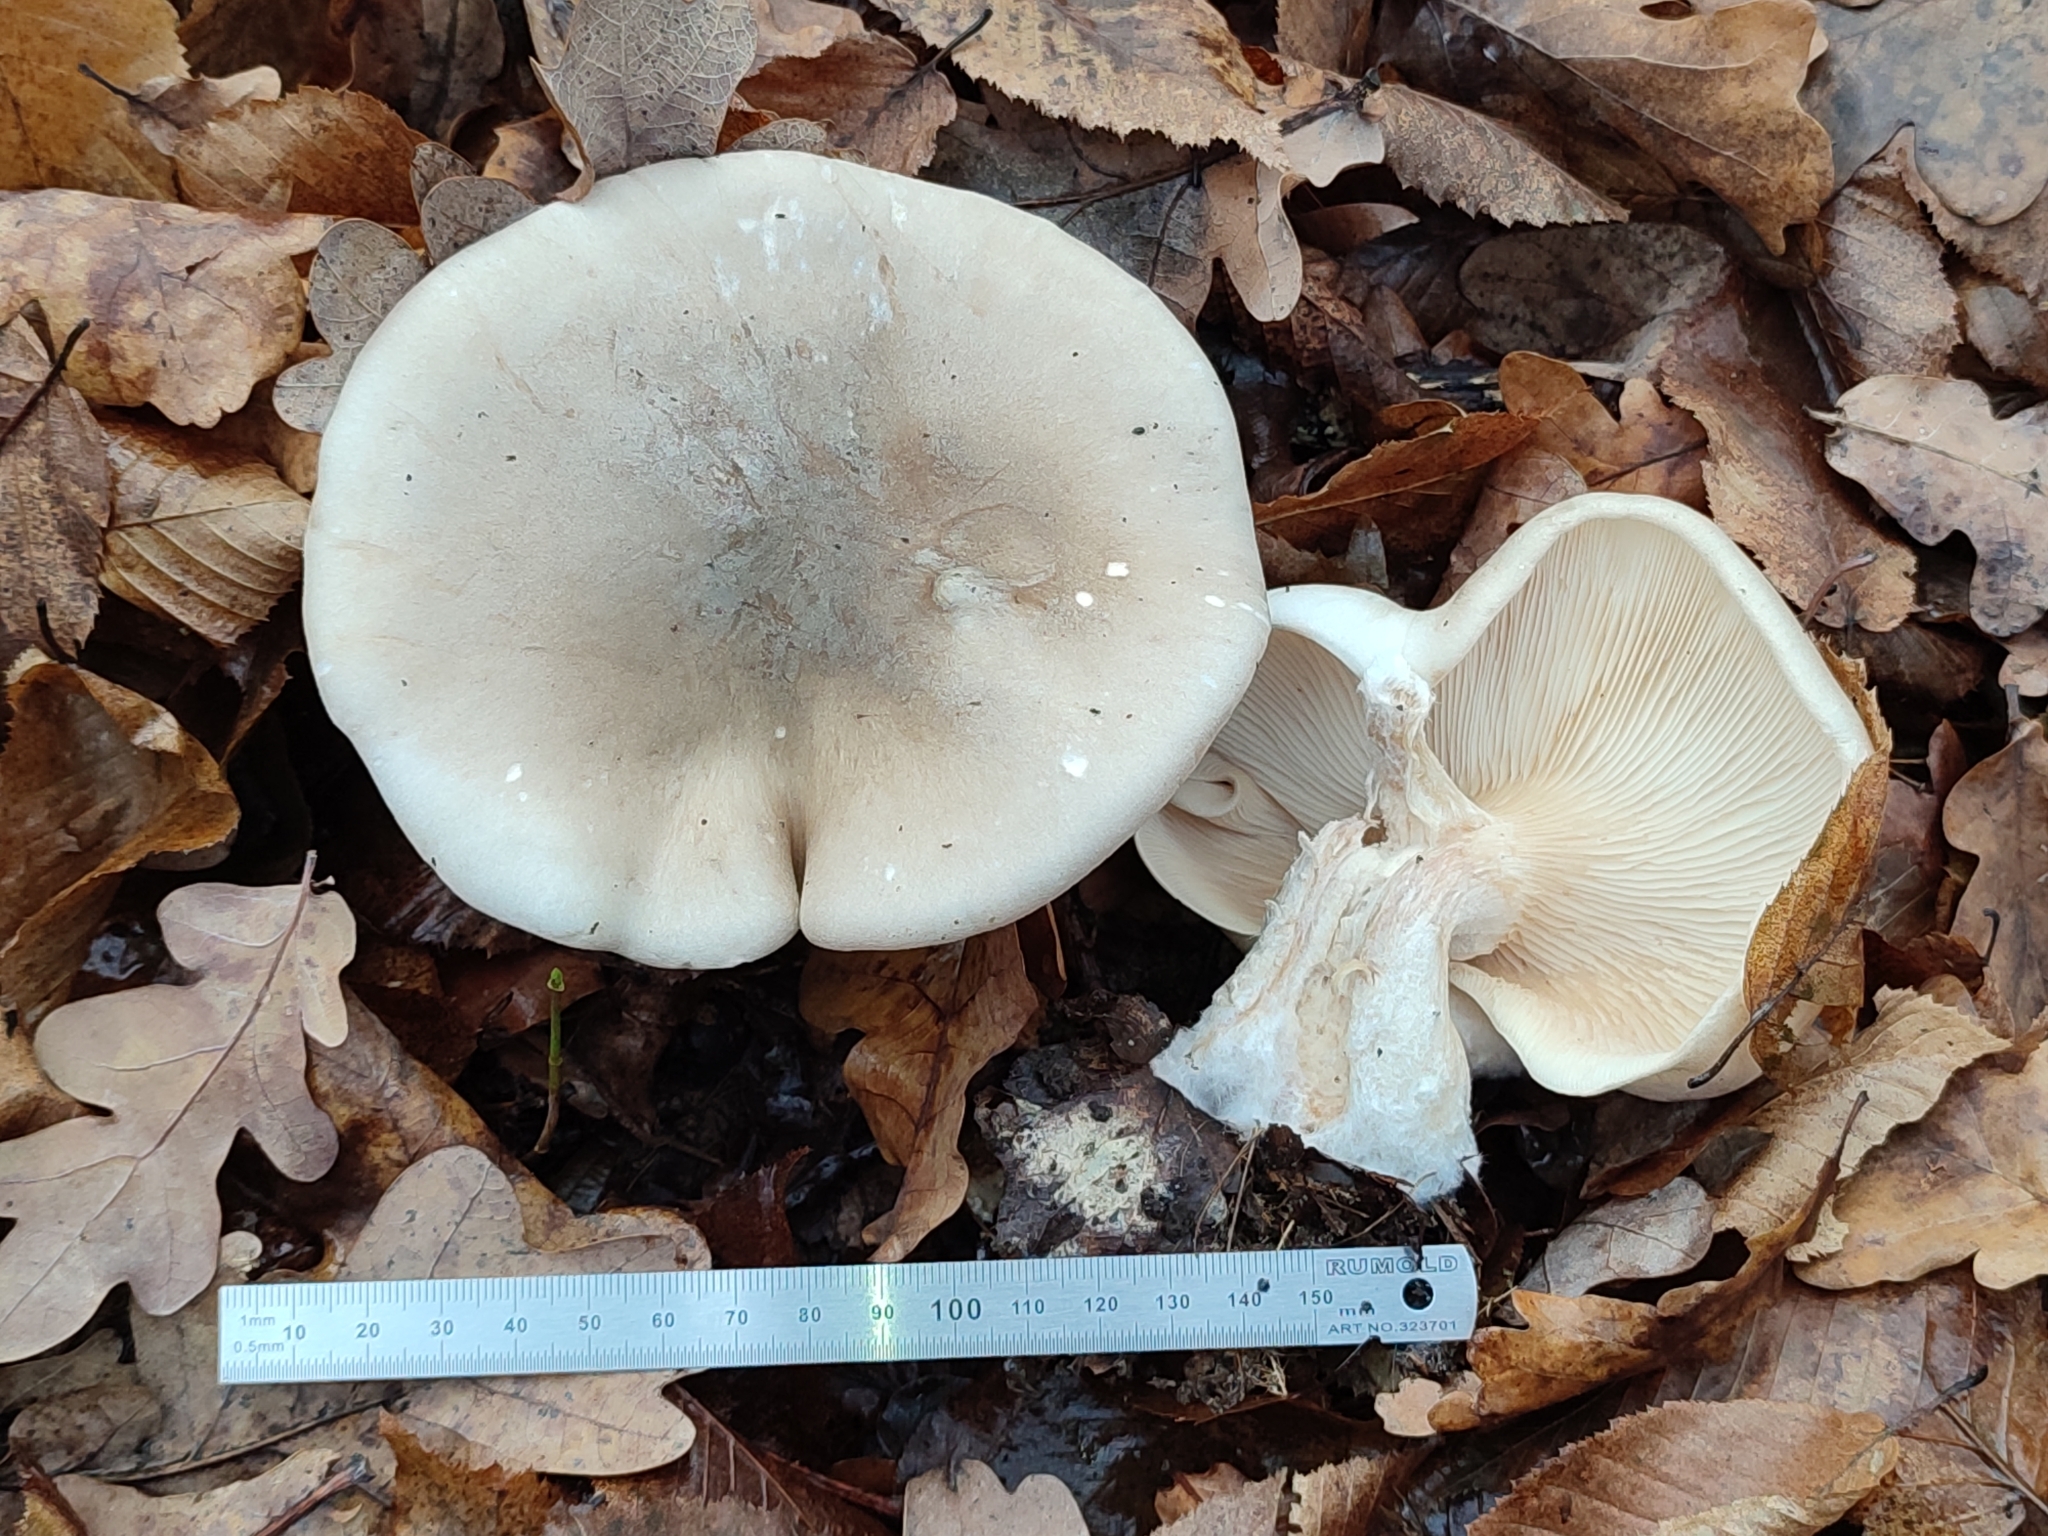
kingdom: Fungi
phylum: Basidiomycota
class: Agaricomycetes
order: Agaricales
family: Tricholomataceae
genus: Clitocybe
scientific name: Clitocybe nebularis
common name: Clouded agaric
